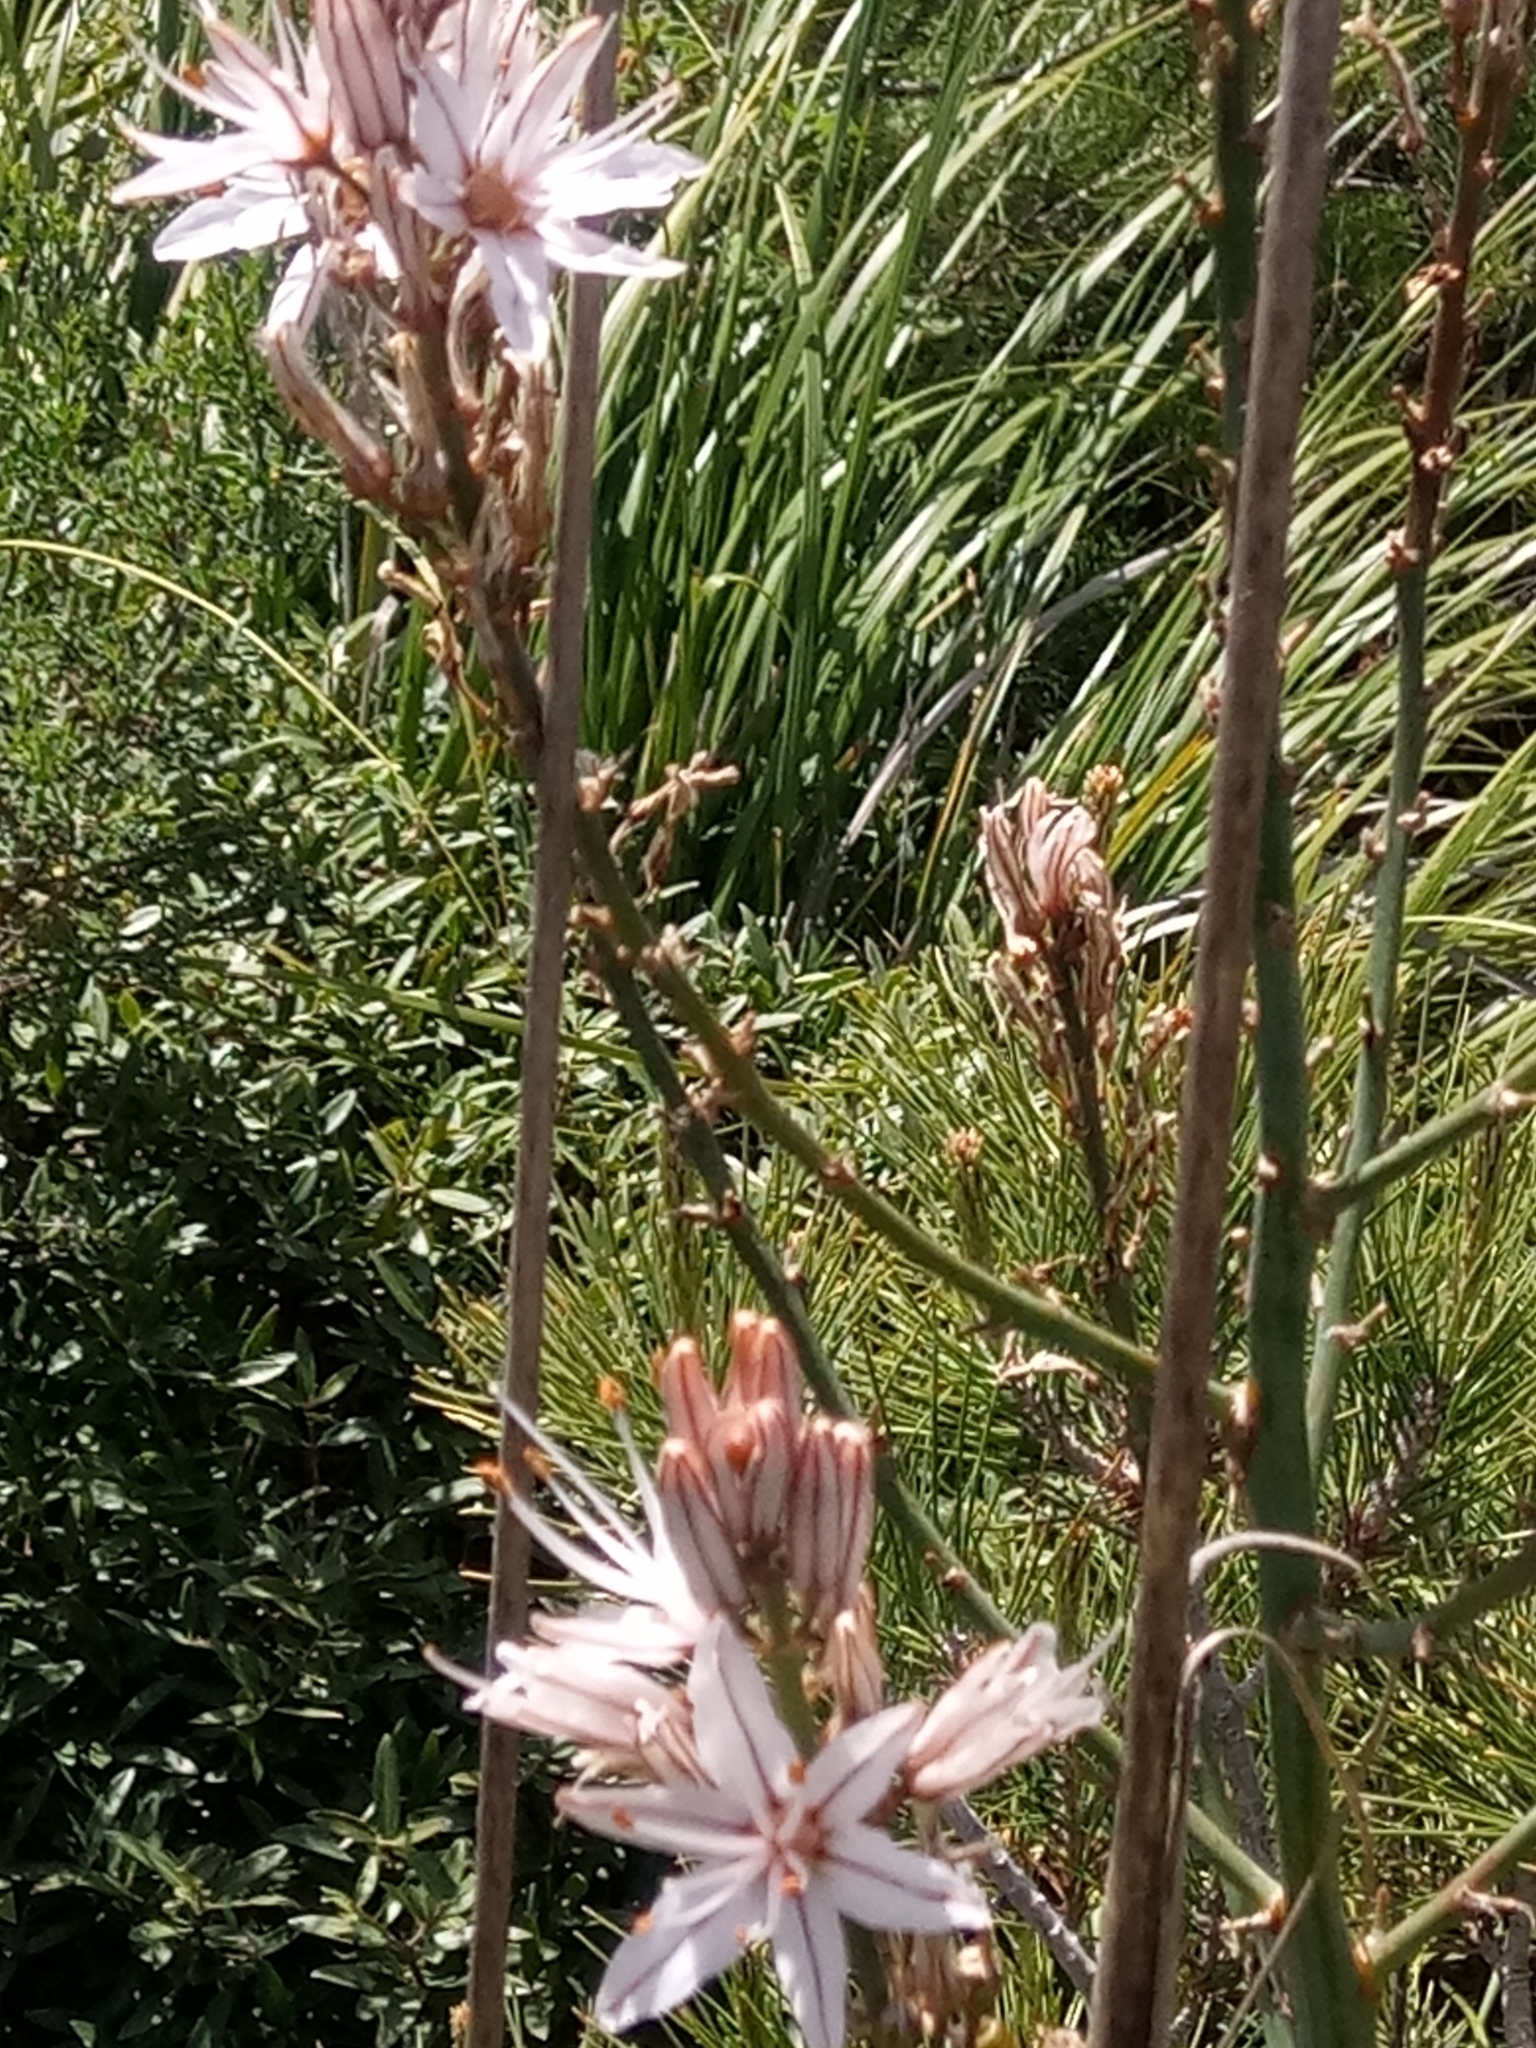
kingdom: Plantae
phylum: Tracheophyta
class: Liliopsida
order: Asparagales
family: Asphodelaceae
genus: Asphodelus
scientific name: Asphodelus ramosus
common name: Silverrod
